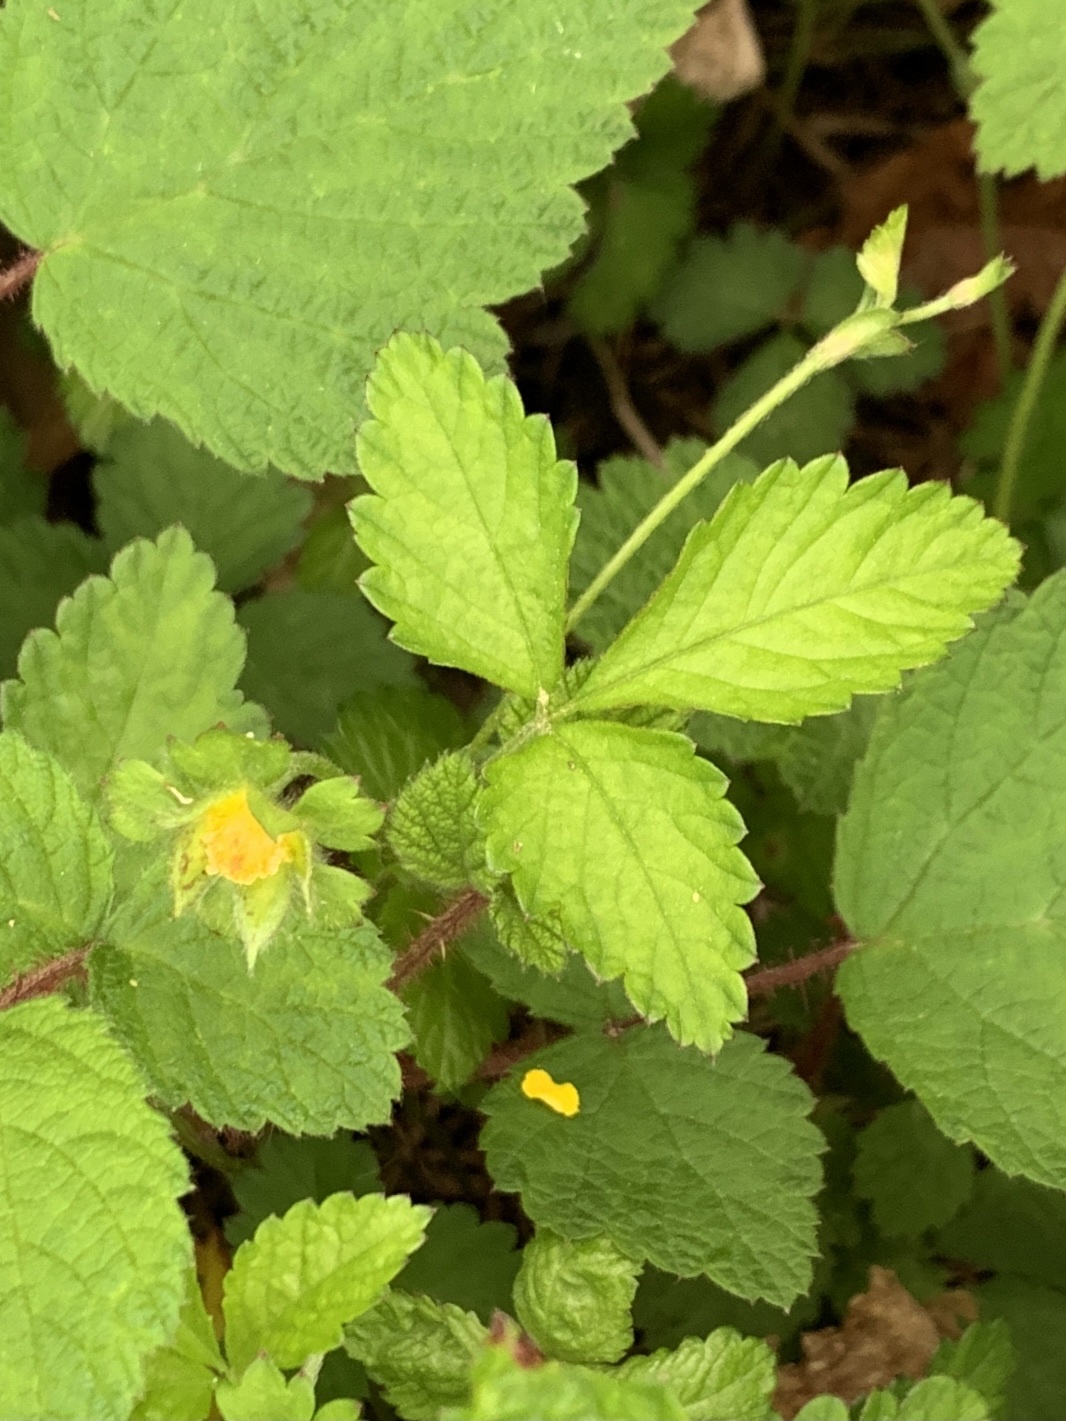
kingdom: Plantae
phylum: Tracheophyta
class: Magnoliopsida
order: Rosales
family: Rosaceae
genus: Potentilla
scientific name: Potentilla indica
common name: Yellow-flowered strawberry
